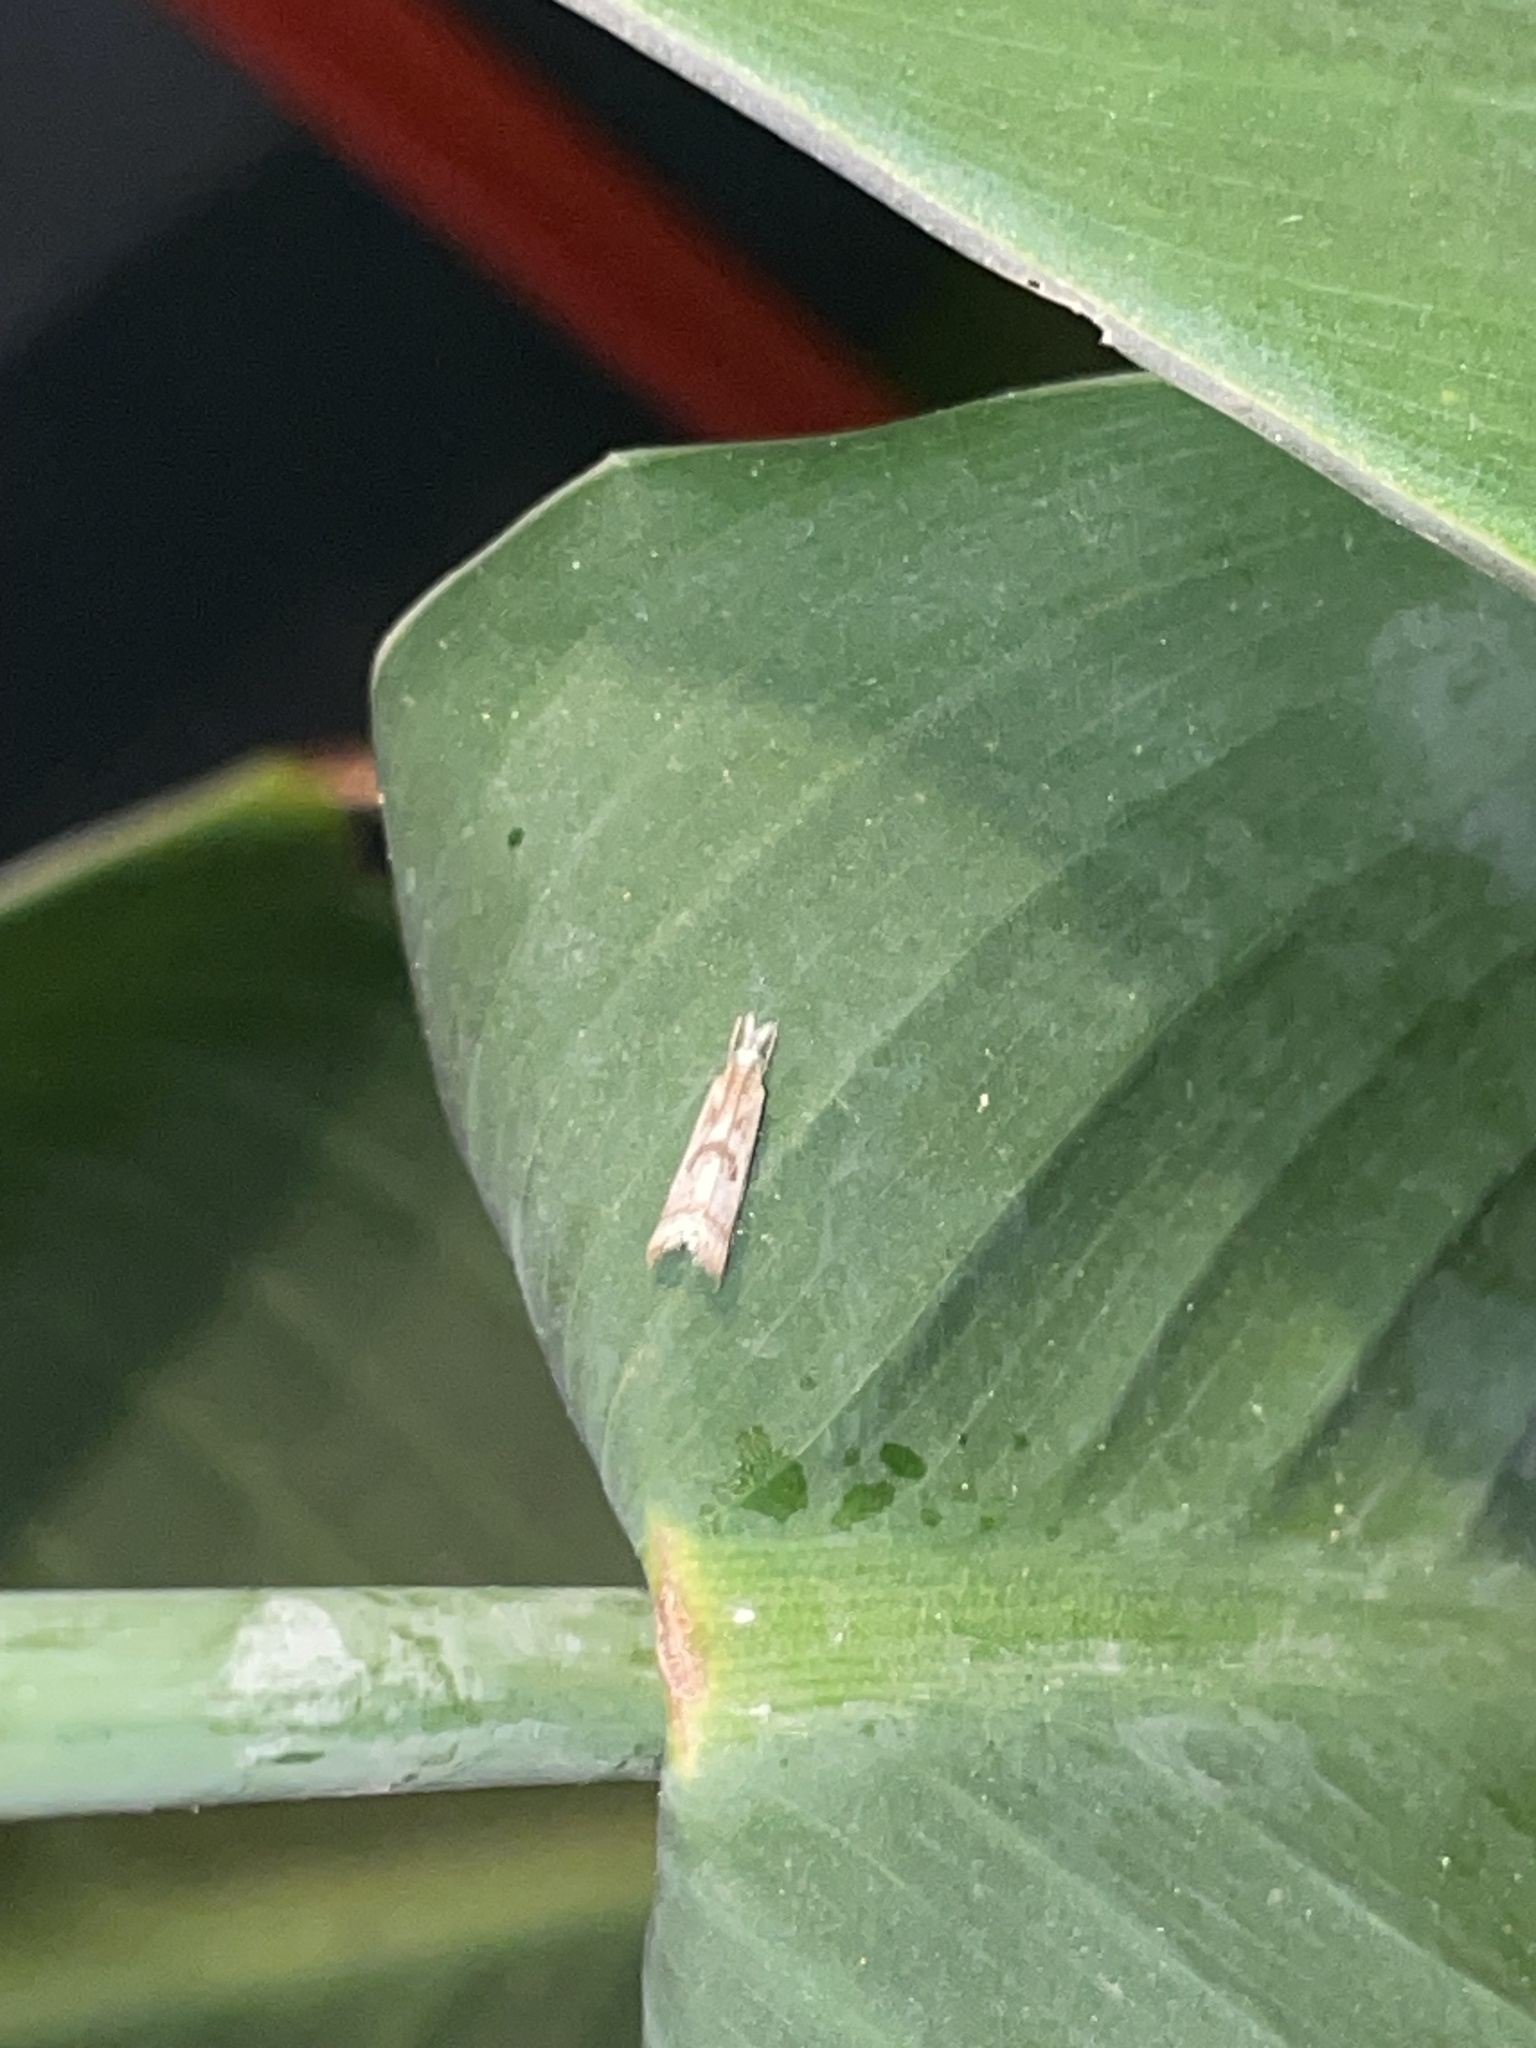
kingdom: Animalia
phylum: Arthropoda
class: Insecta
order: Lepidoptera
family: Crambidae
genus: Microcrambus
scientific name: Microcrambus elegans
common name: Elegant grass-veneer
